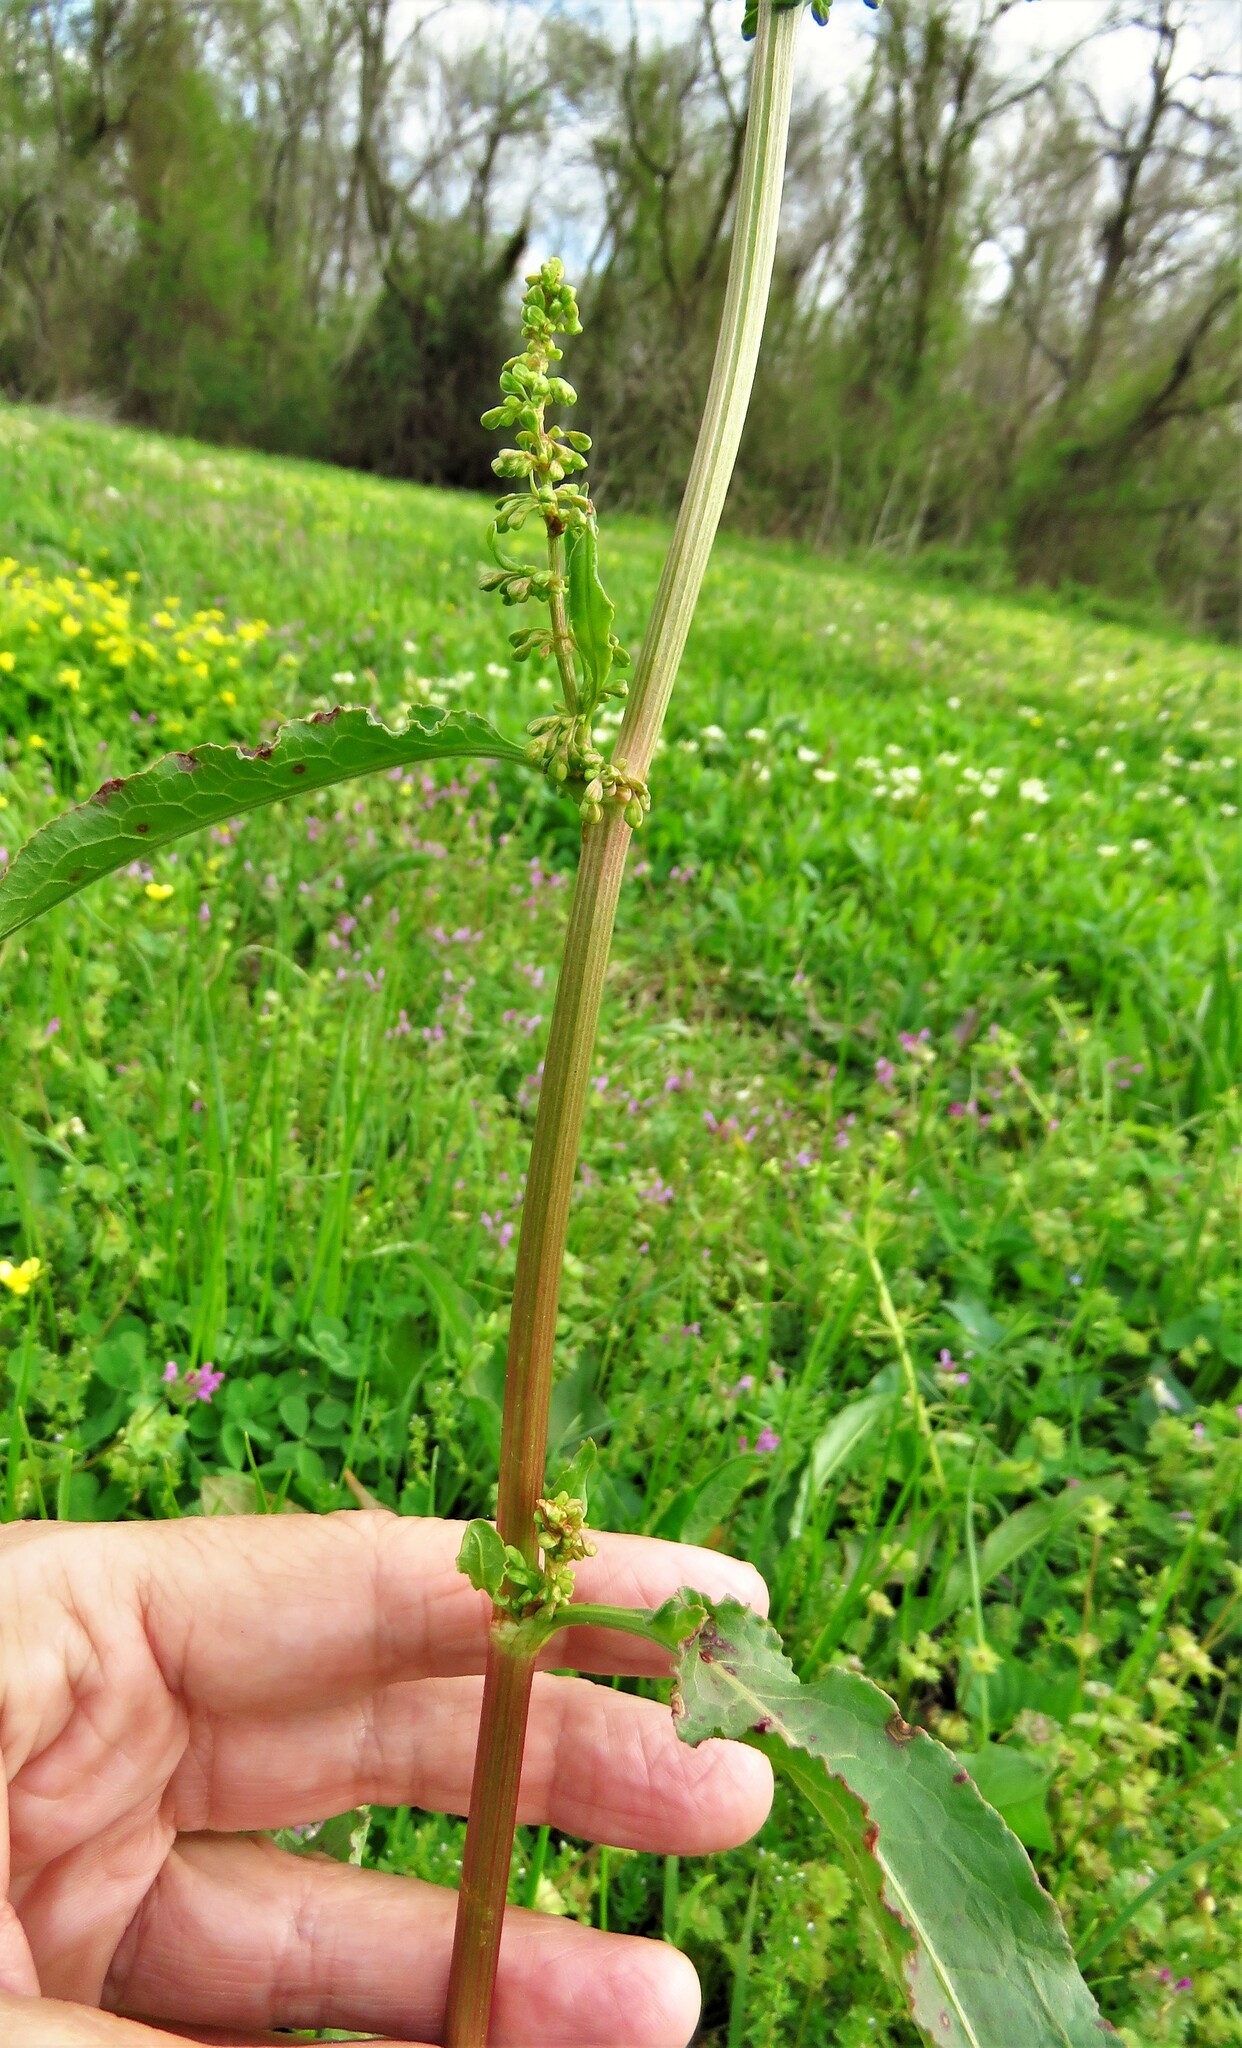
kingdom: Plantae
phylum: Tracheophyta
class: Magnoliopsida
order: Caryophyllales
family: Polygonaceae
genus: Rumex
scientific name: Rumex crispus
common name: Curled dock
